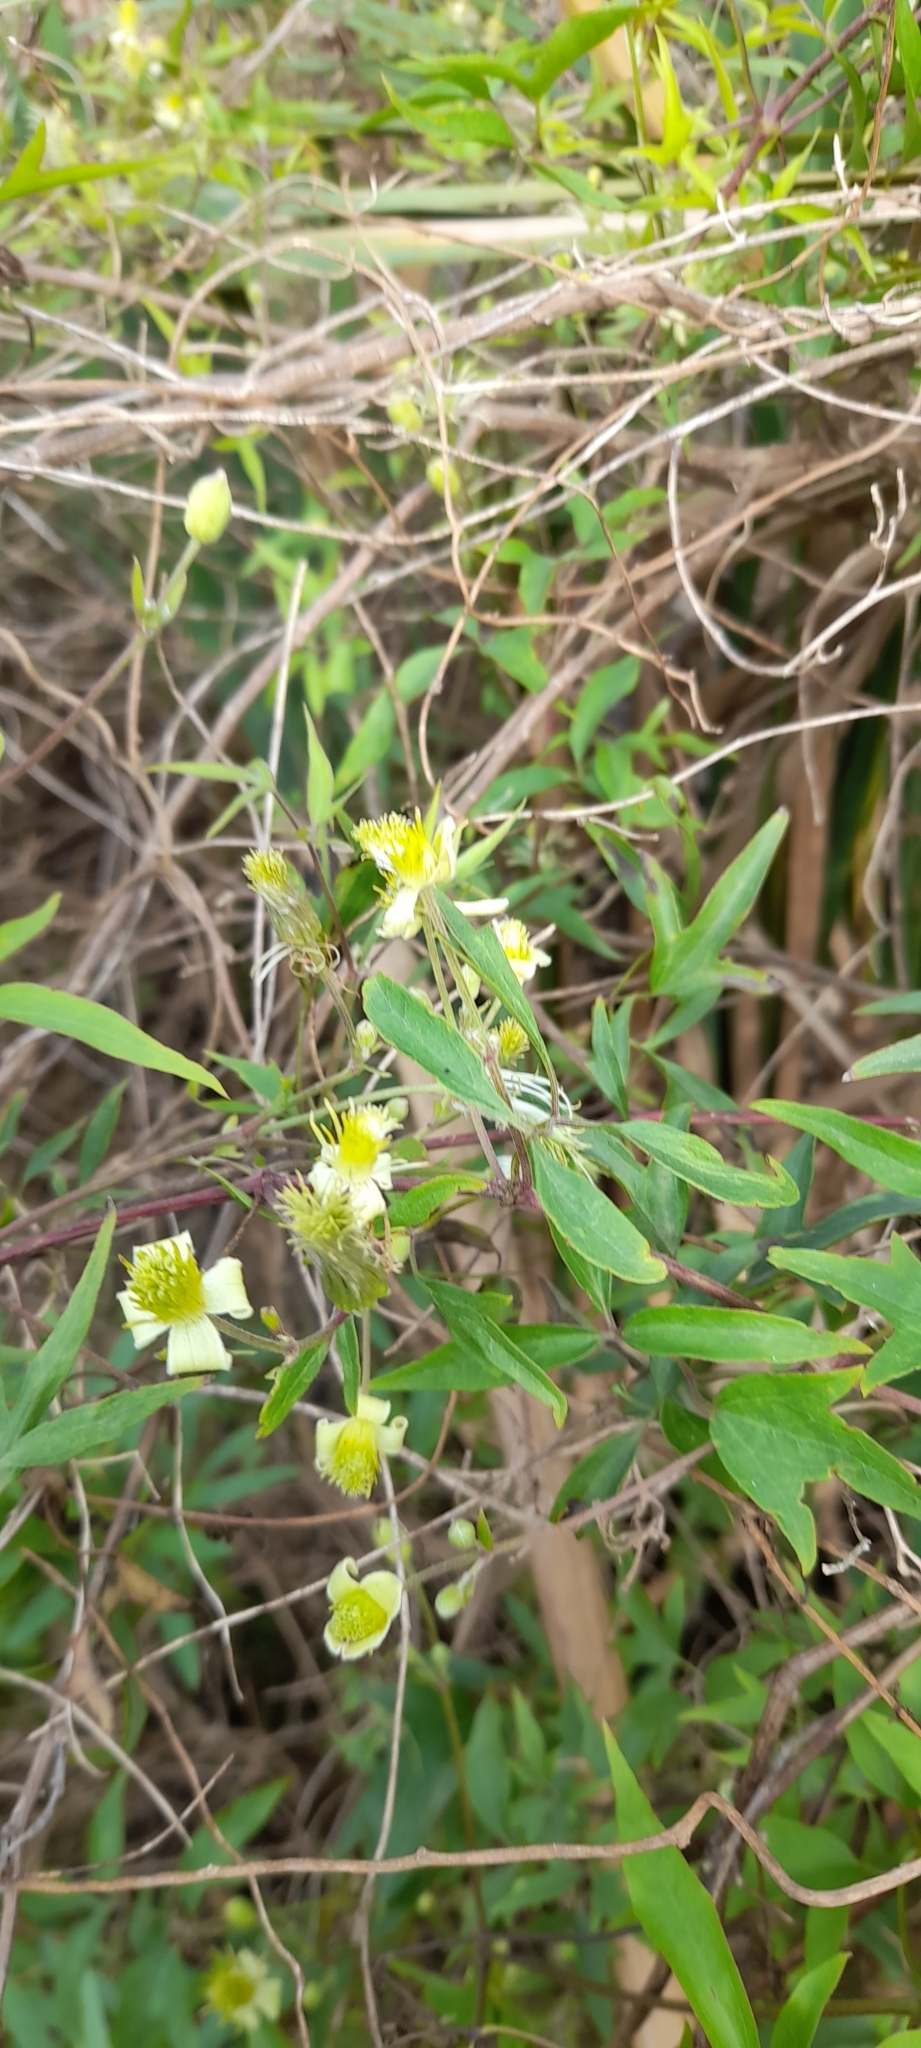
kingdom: Plantae
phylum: Tracheophyta
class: Magnoliopsida
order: Ranunculales
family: Ranunculaceae
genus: Clematis
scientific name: Clematis montevidensis
